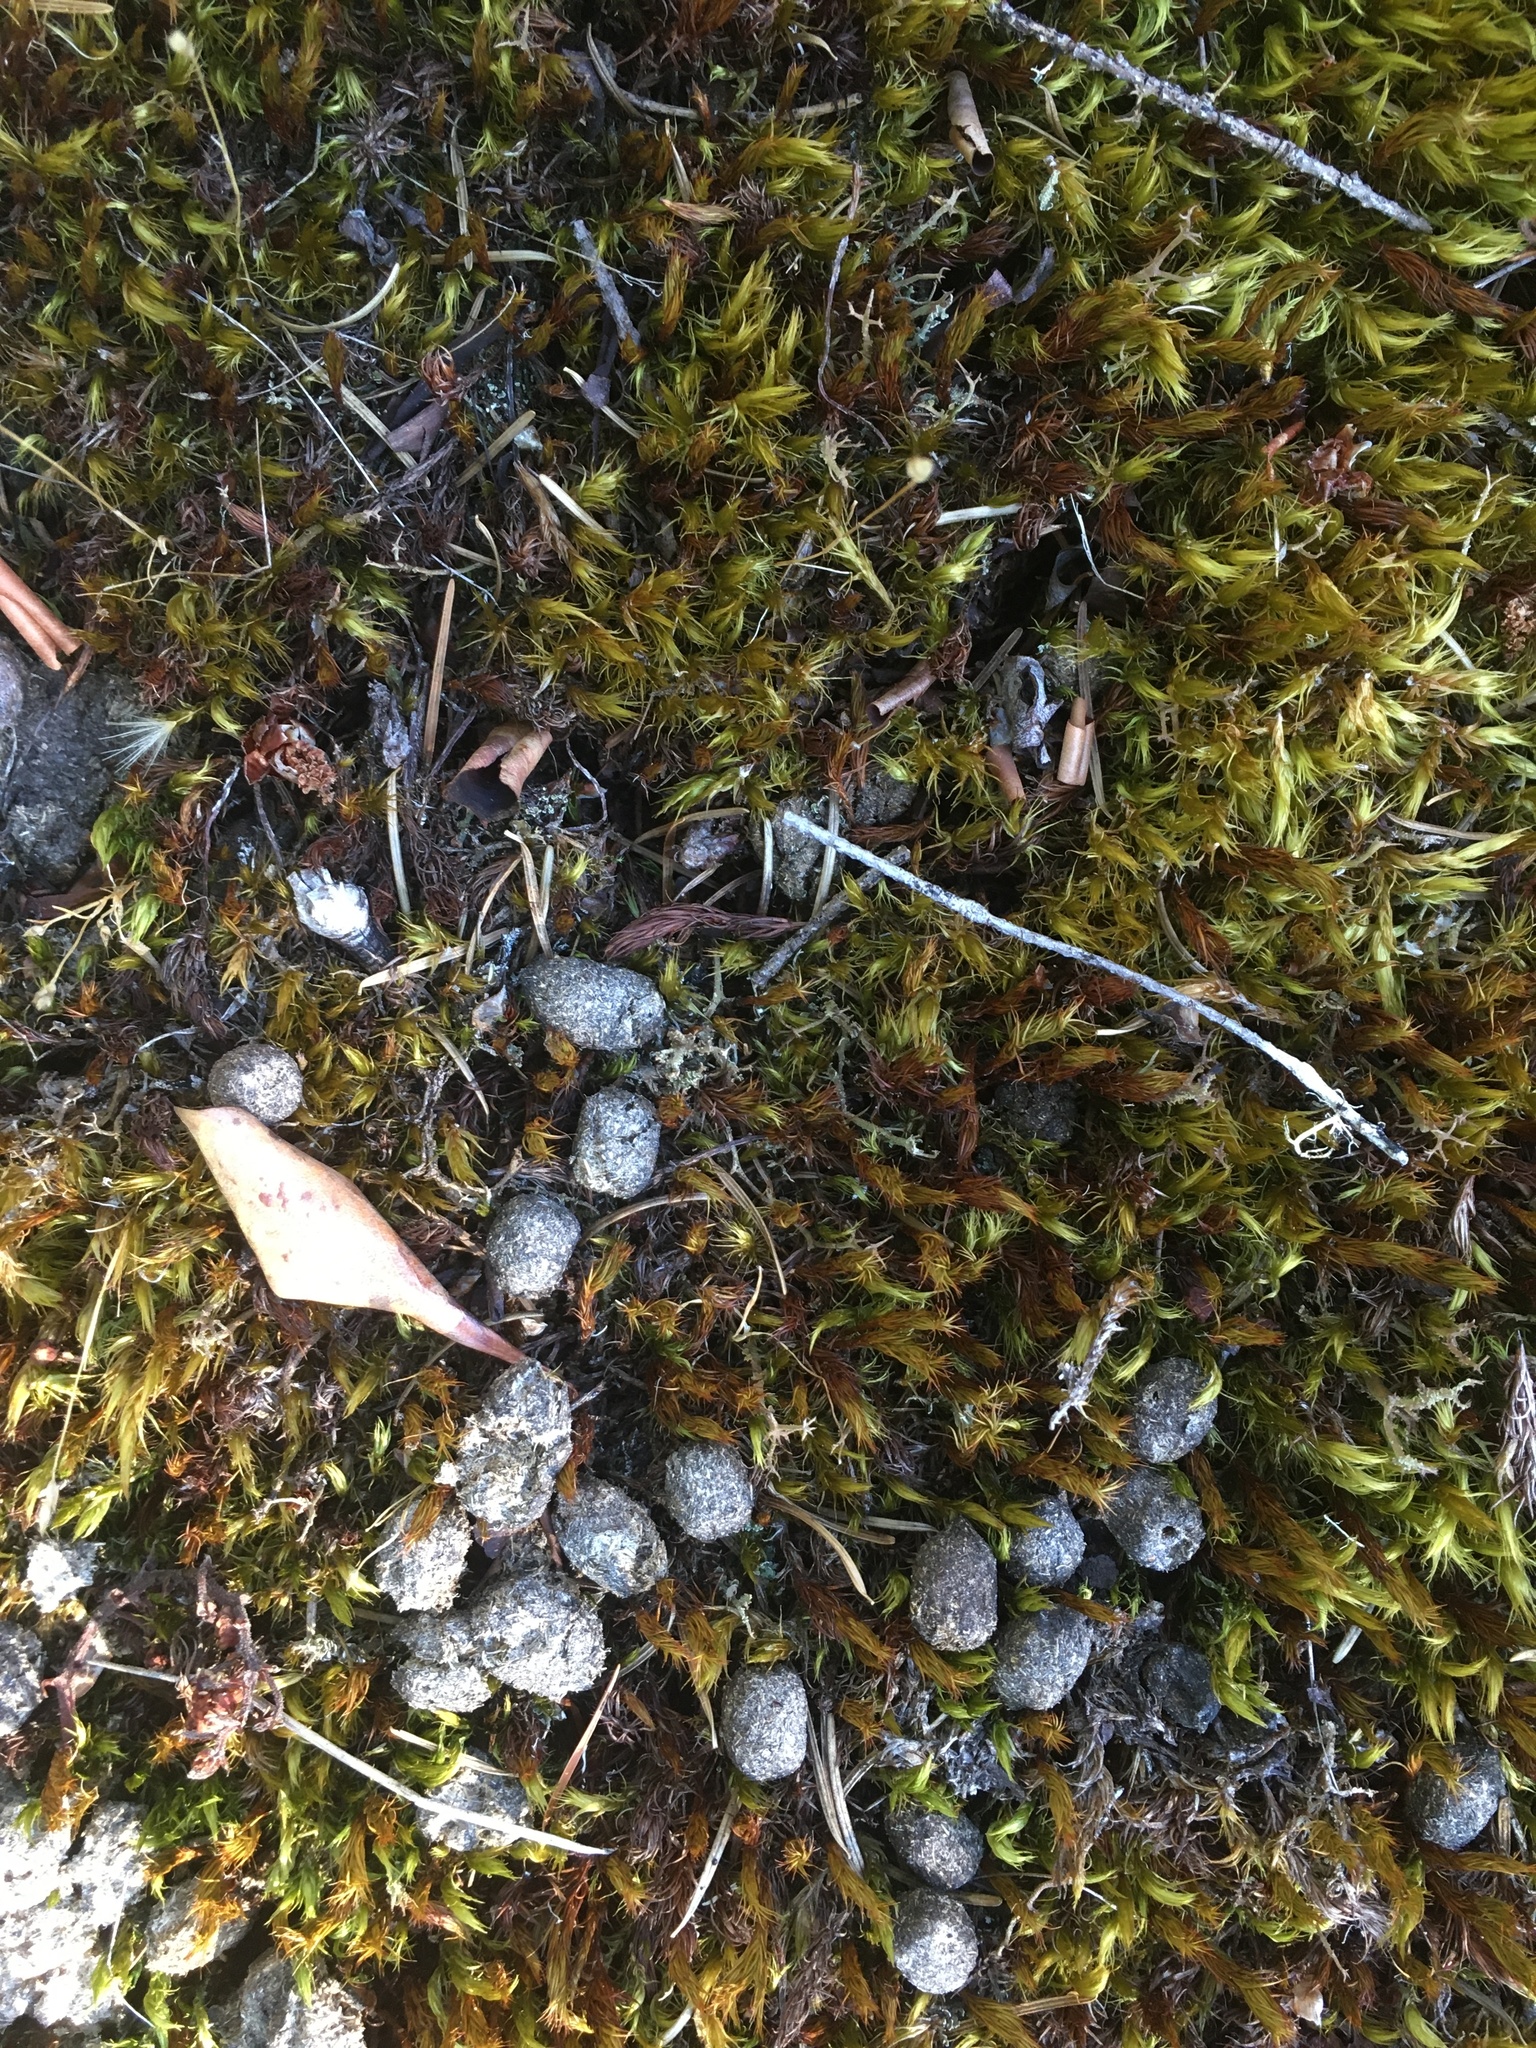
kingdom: Animalia
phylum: Chordata
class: Mammalia
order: Artiodactyla
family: Cervidae
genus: Odocoileus
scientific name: Odocoileus hemionus
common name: Mule deer
